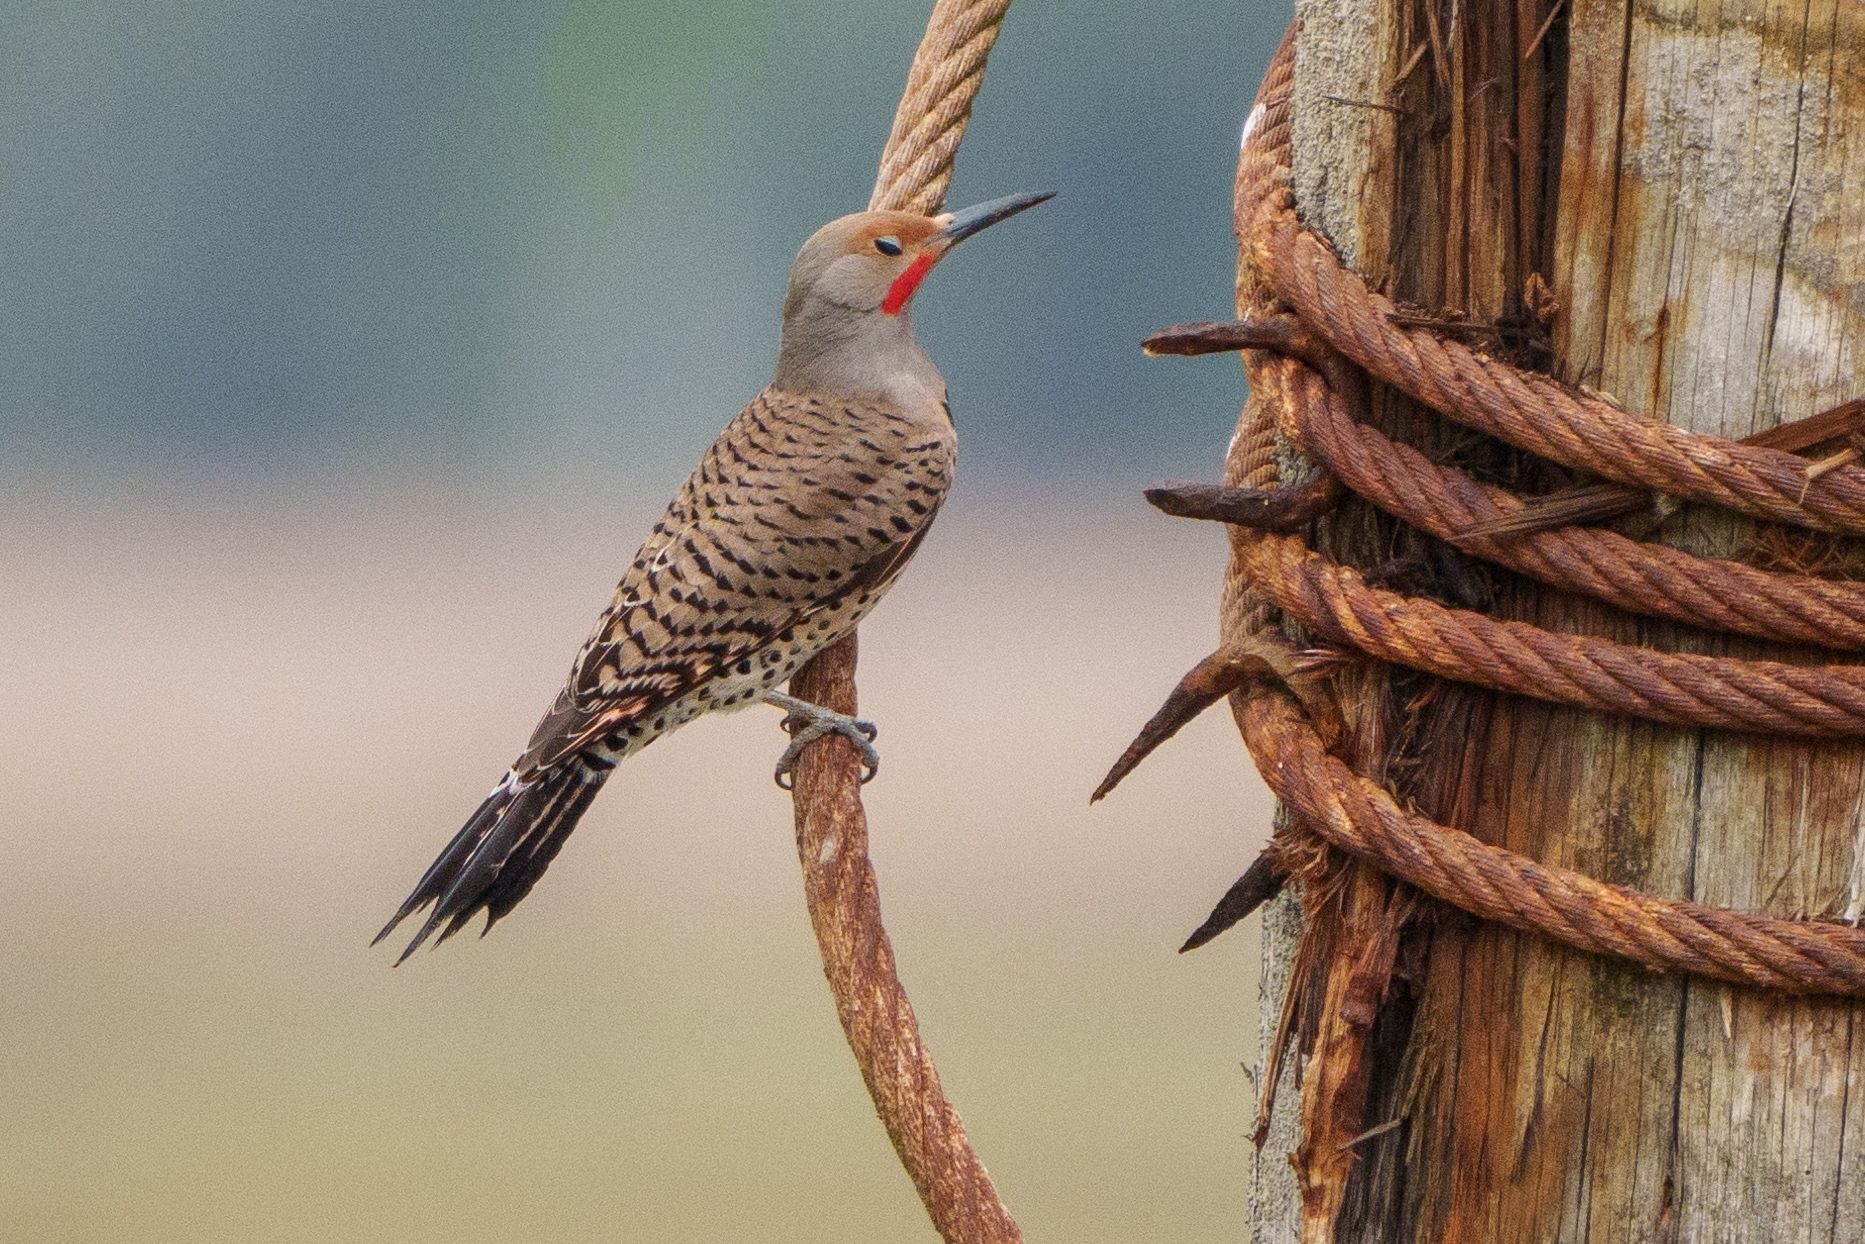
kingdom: Animalia
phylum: Chordata
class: Aves
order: Piciformes
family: Picidae
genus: Colaptes
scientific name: Colaptes auratus
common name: Northern flicker
